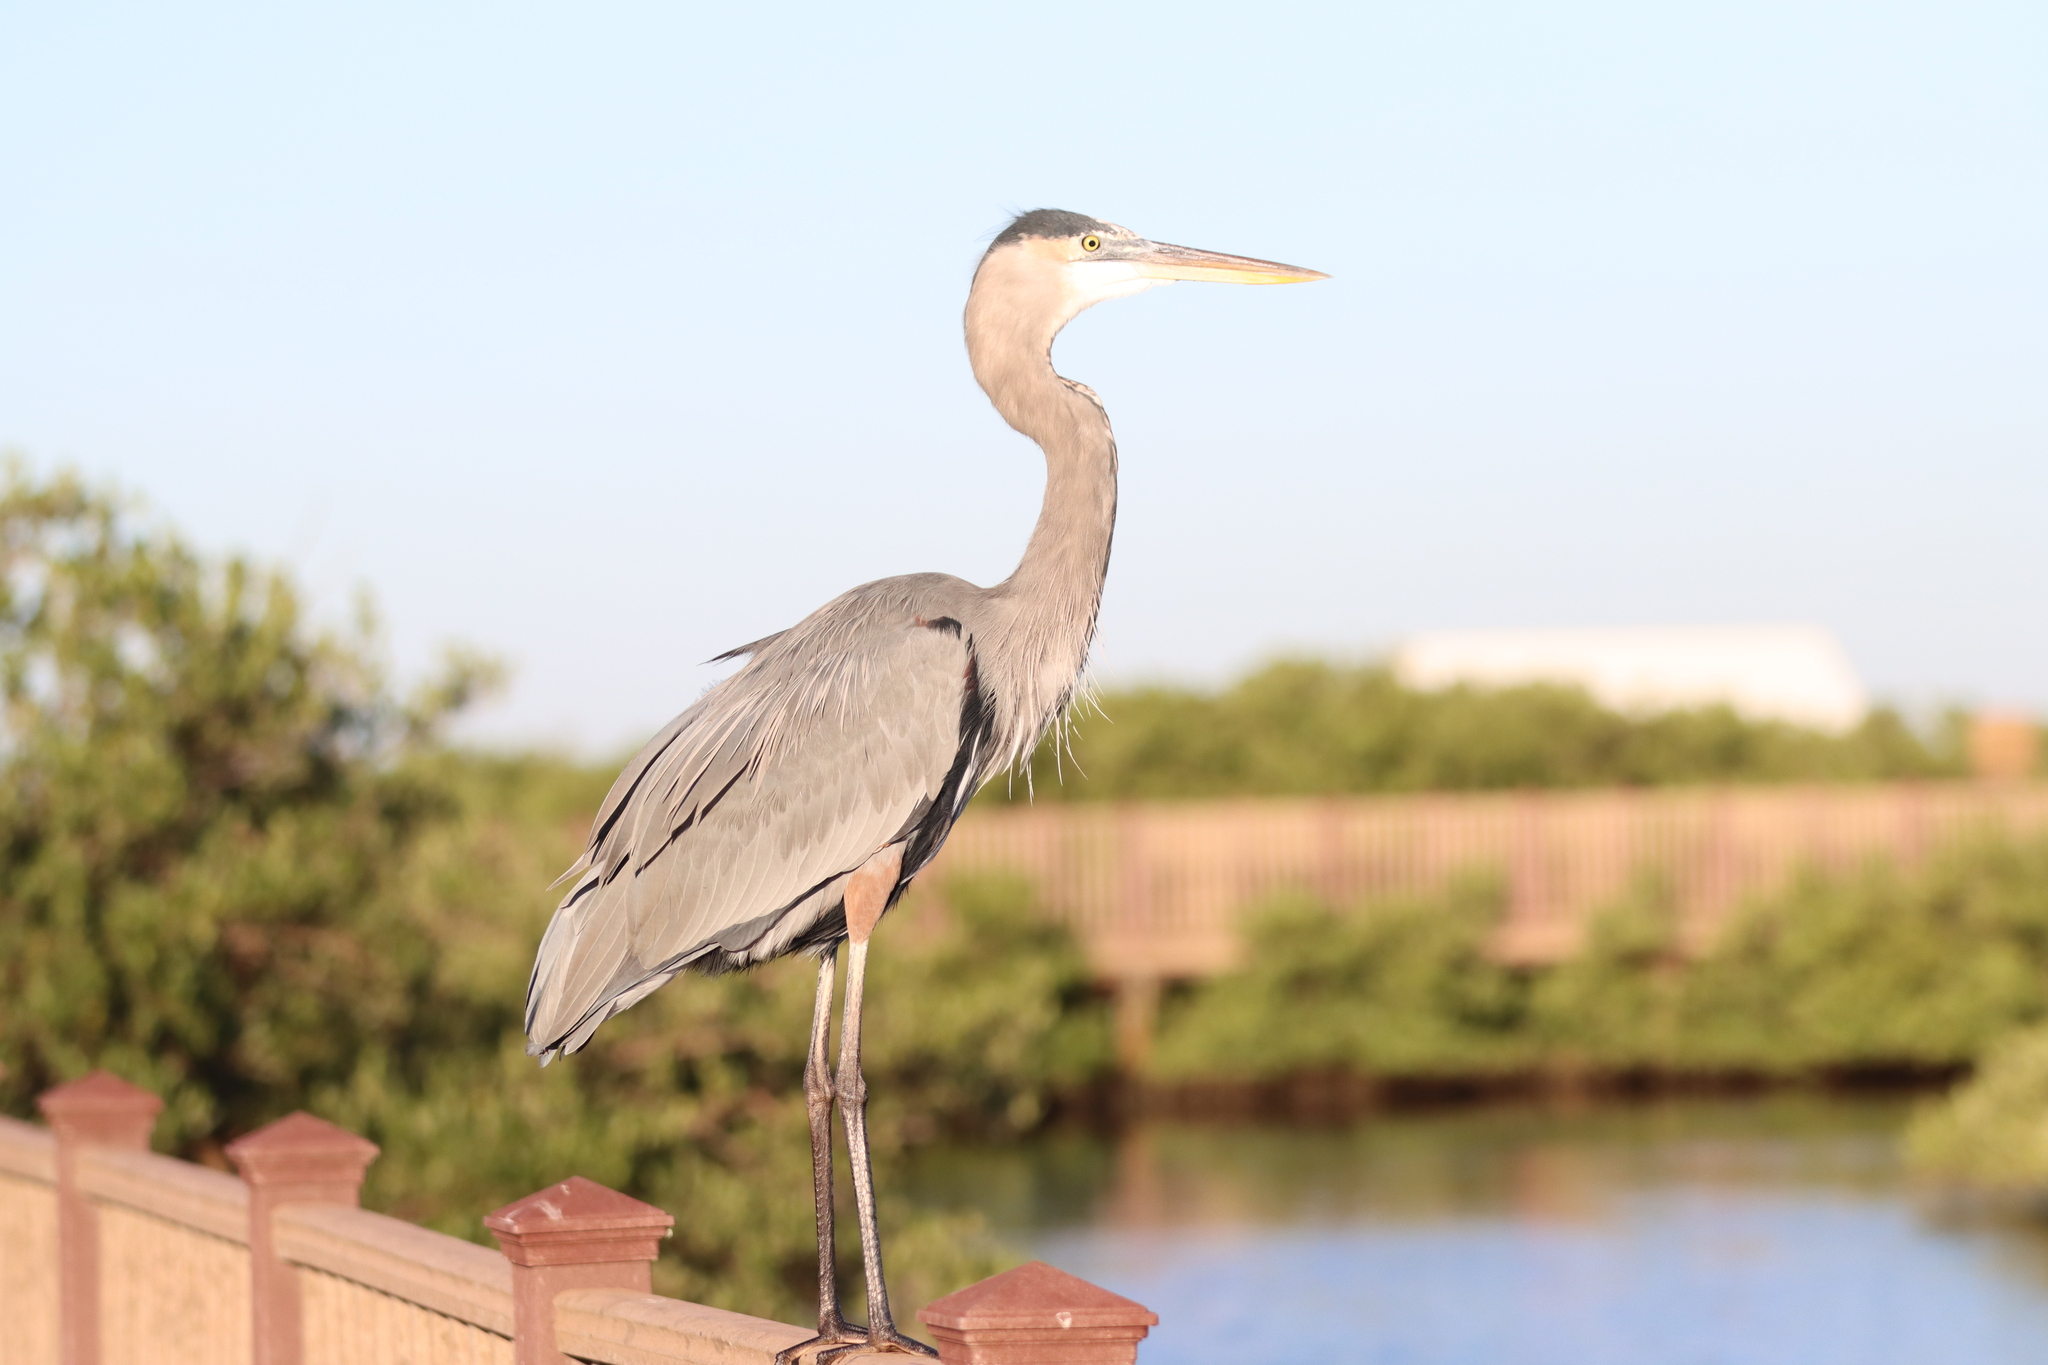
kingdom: Animalia
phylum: Chordata
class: Aves
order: Pelecaniformes
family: Ardeidae
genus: Ardea
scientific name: Ardea herodias
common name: Great blue heron
